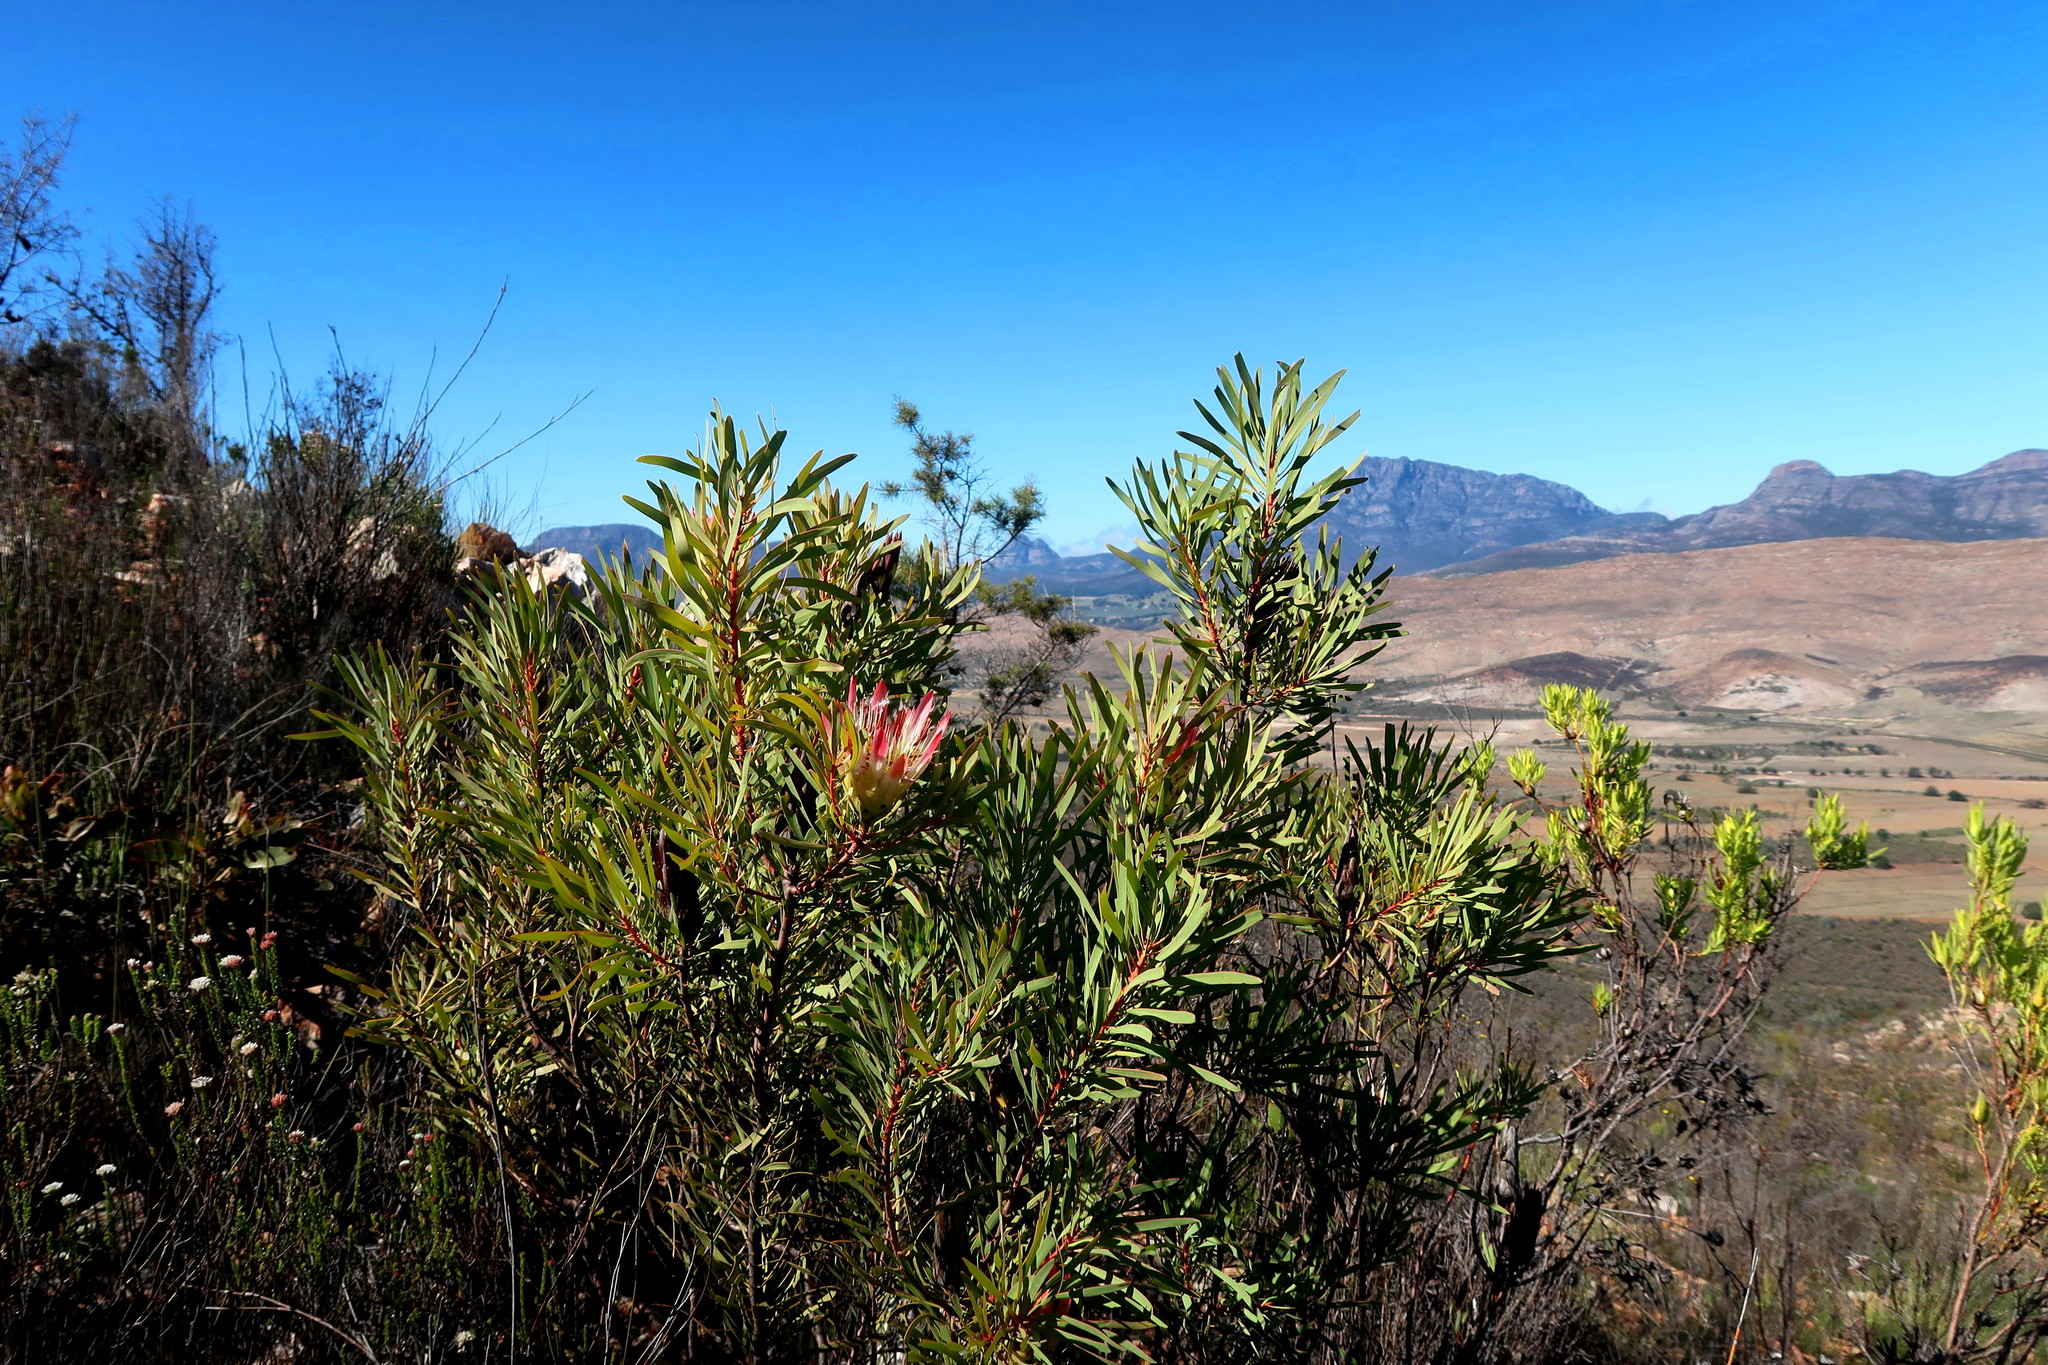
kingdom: Plantae
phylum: Tracheophyta
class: Magnoliopsida
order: Proteales
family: Proteaceae
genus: Protea
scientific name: Protea repens
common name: Sugarbush
